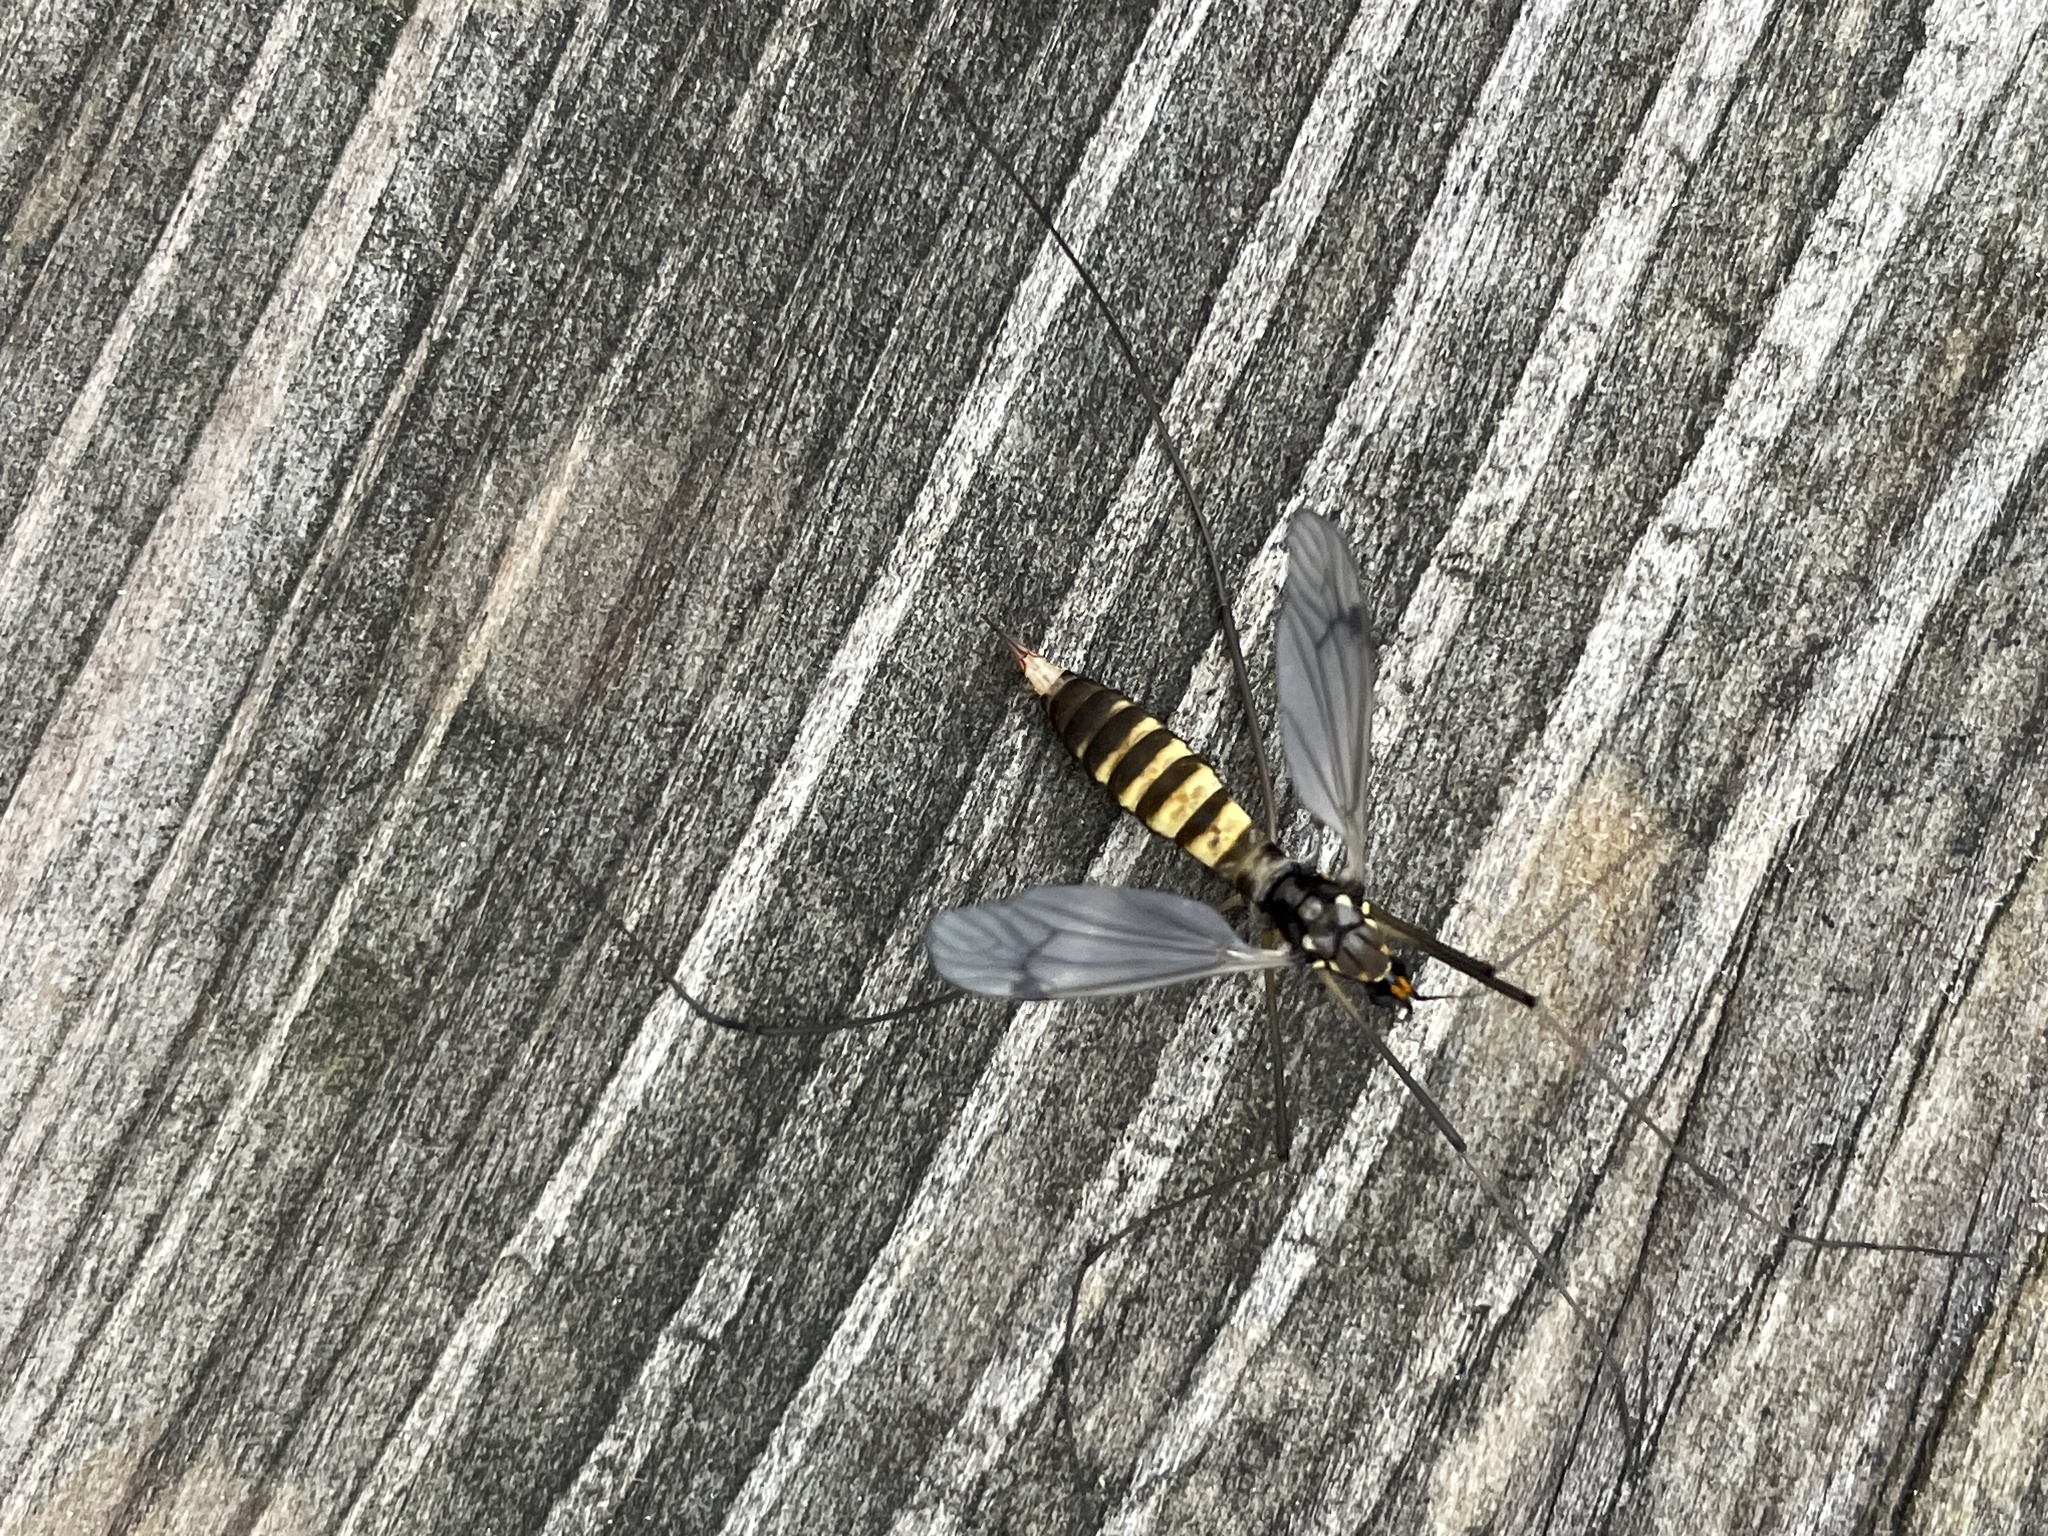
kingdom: Animalia
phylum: Arthropoda
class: Insecta
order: Diptera
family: Tipulidae
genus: Nephrotoma
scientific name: Nephrotoma crocata
